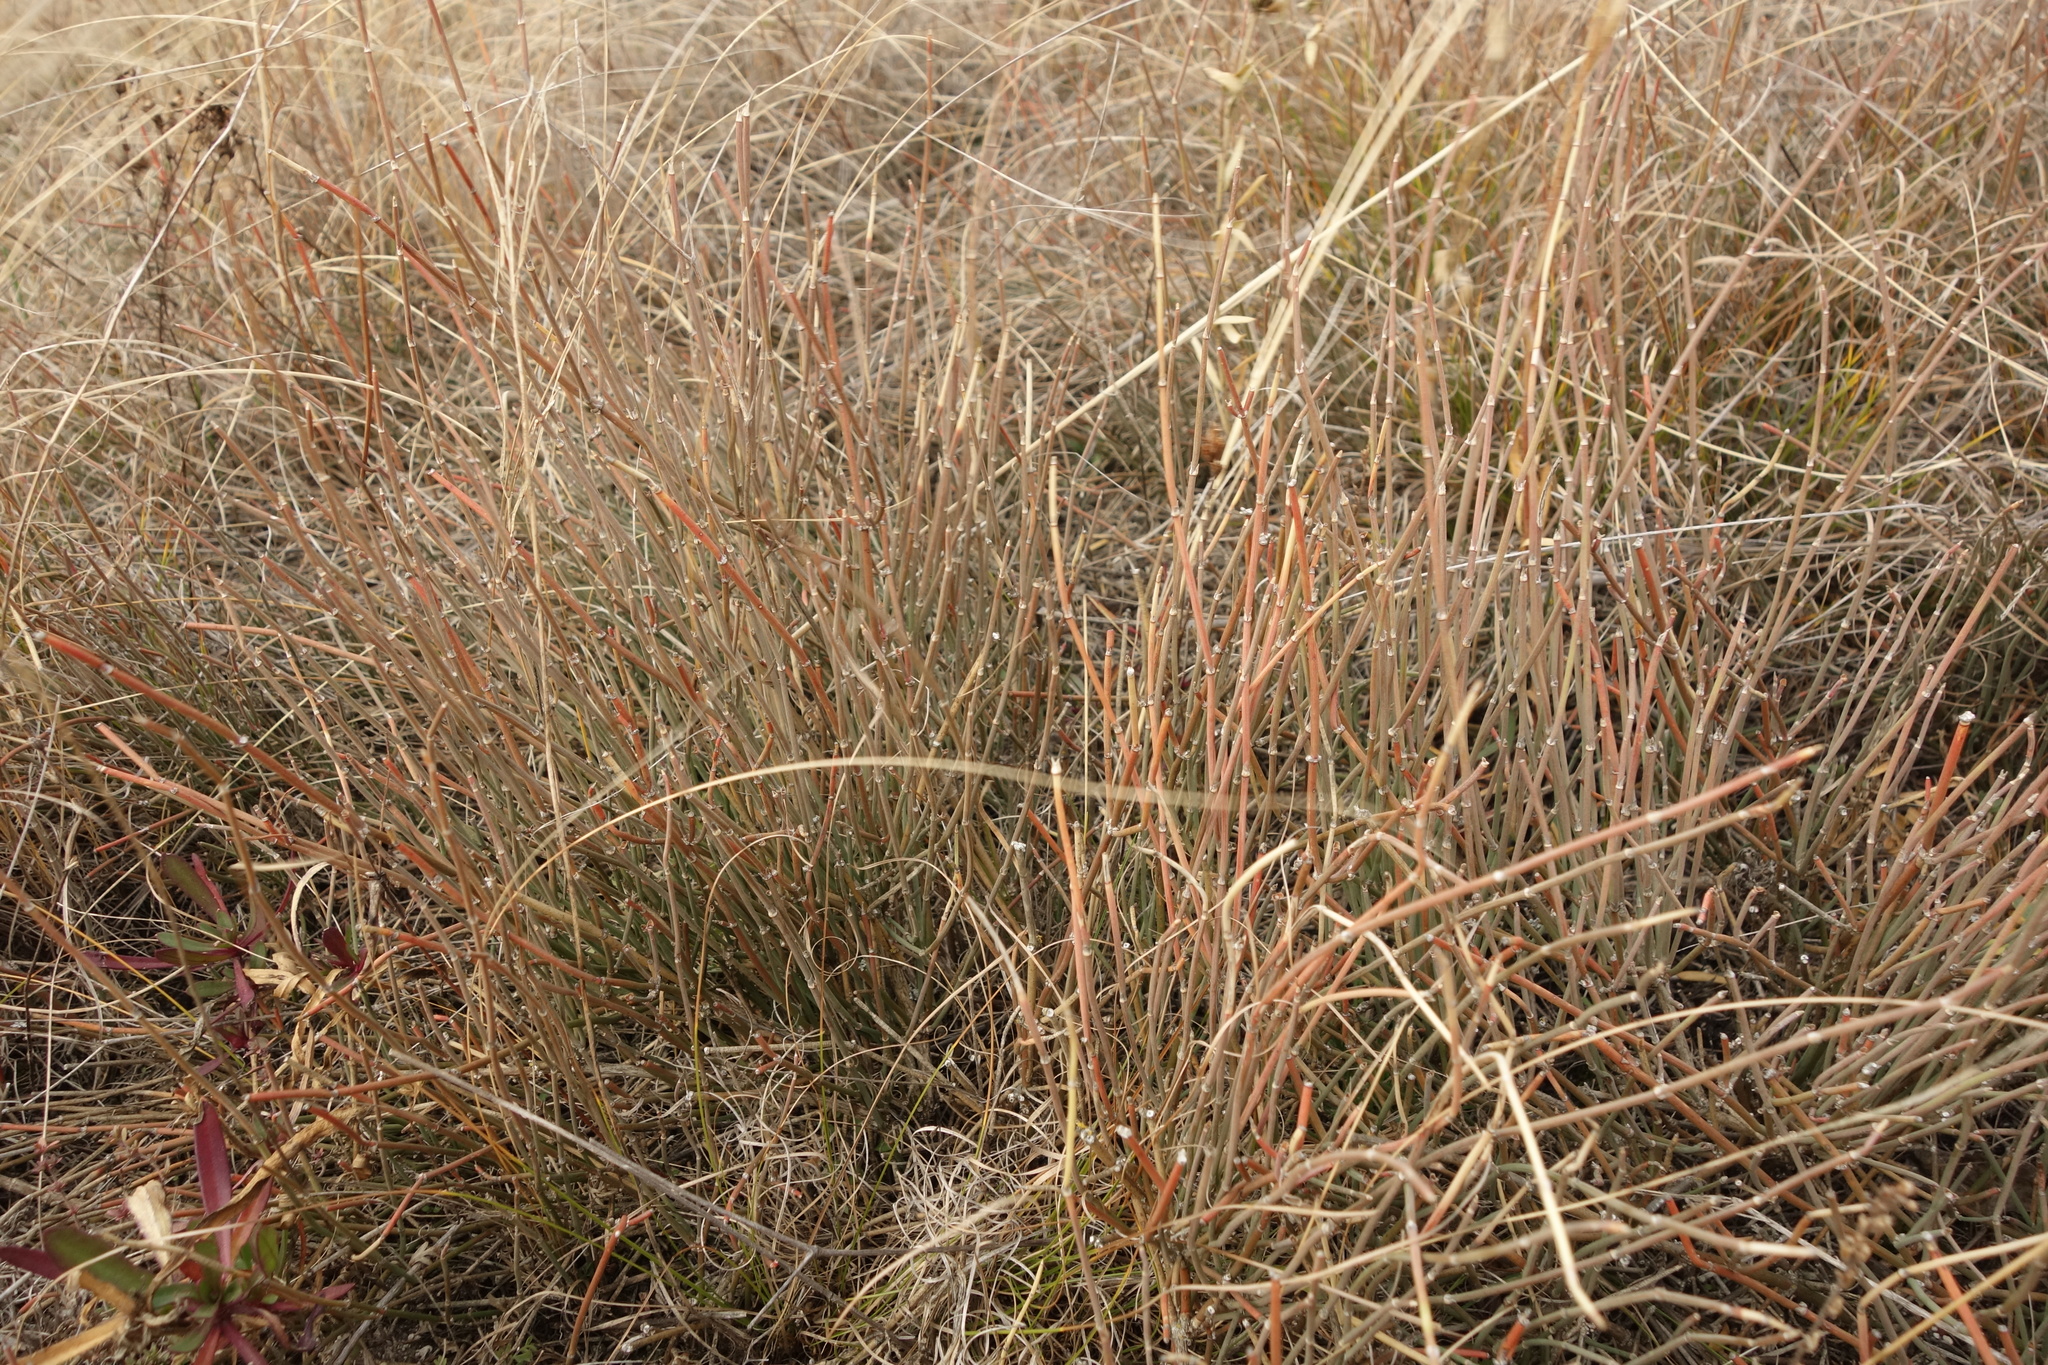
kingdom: Plantae
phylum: Tracheophyta
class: Gnetopsida
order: Ephedrales
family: Ephedraceae
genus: Ephedra
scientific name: Ephedra distachya
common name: Sea grape
